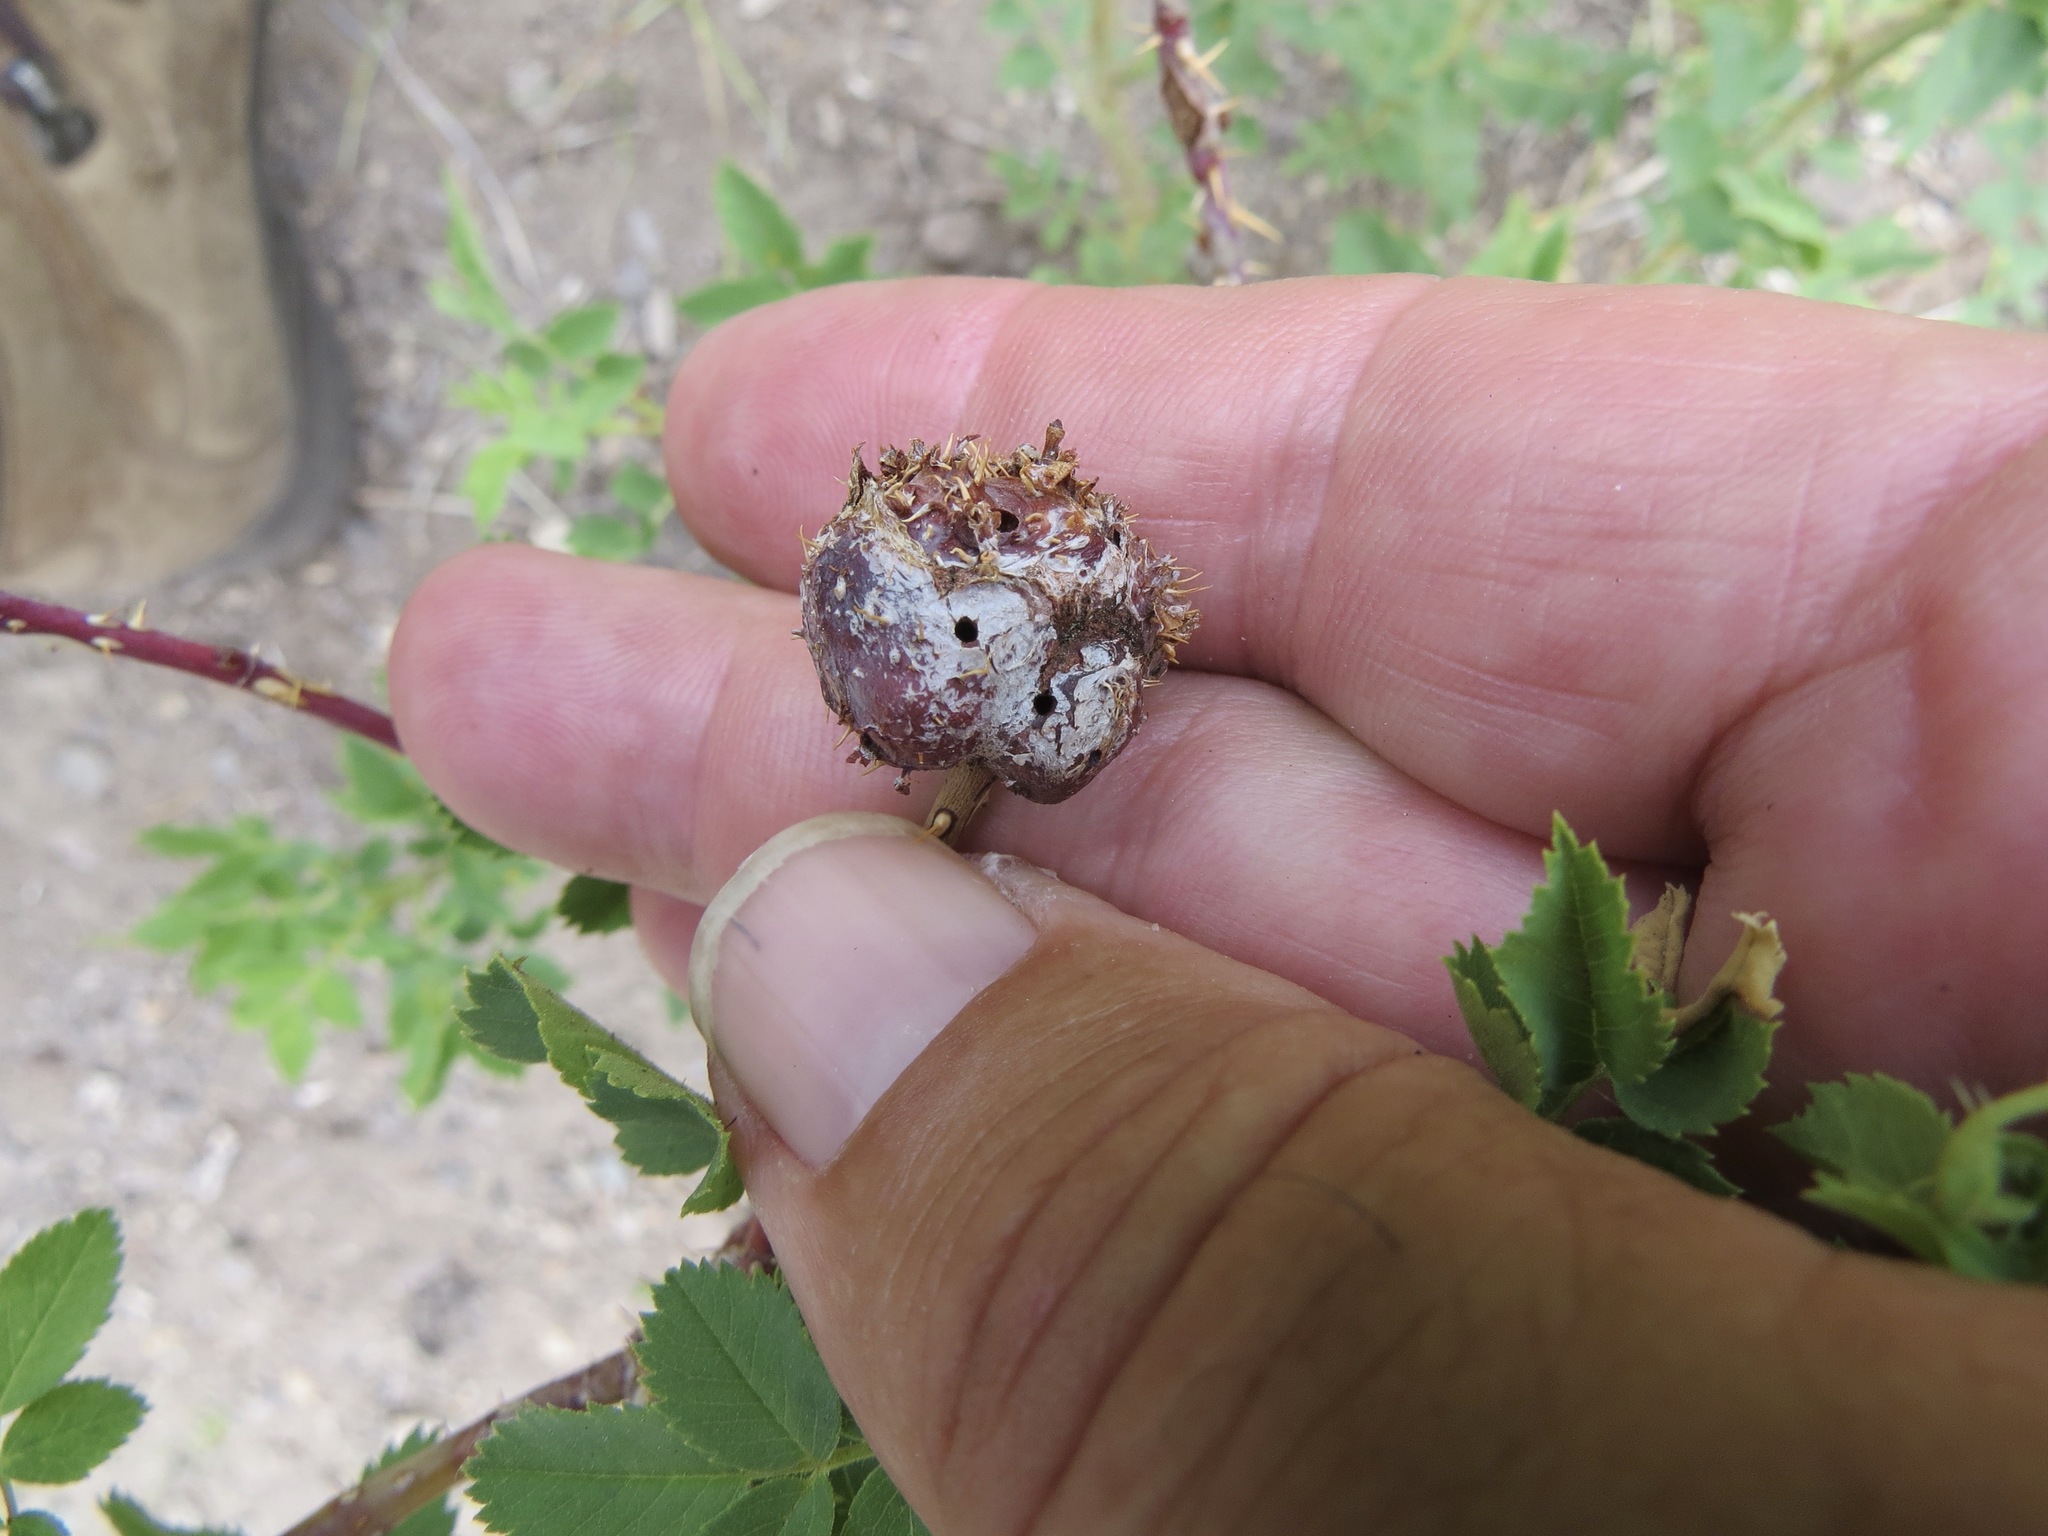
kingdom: Animalia
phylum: Arthropoda
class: Insecta
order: Hymenoptera
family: Cynipidae
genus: Diplolepis
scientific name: Diplolepis spinosa
